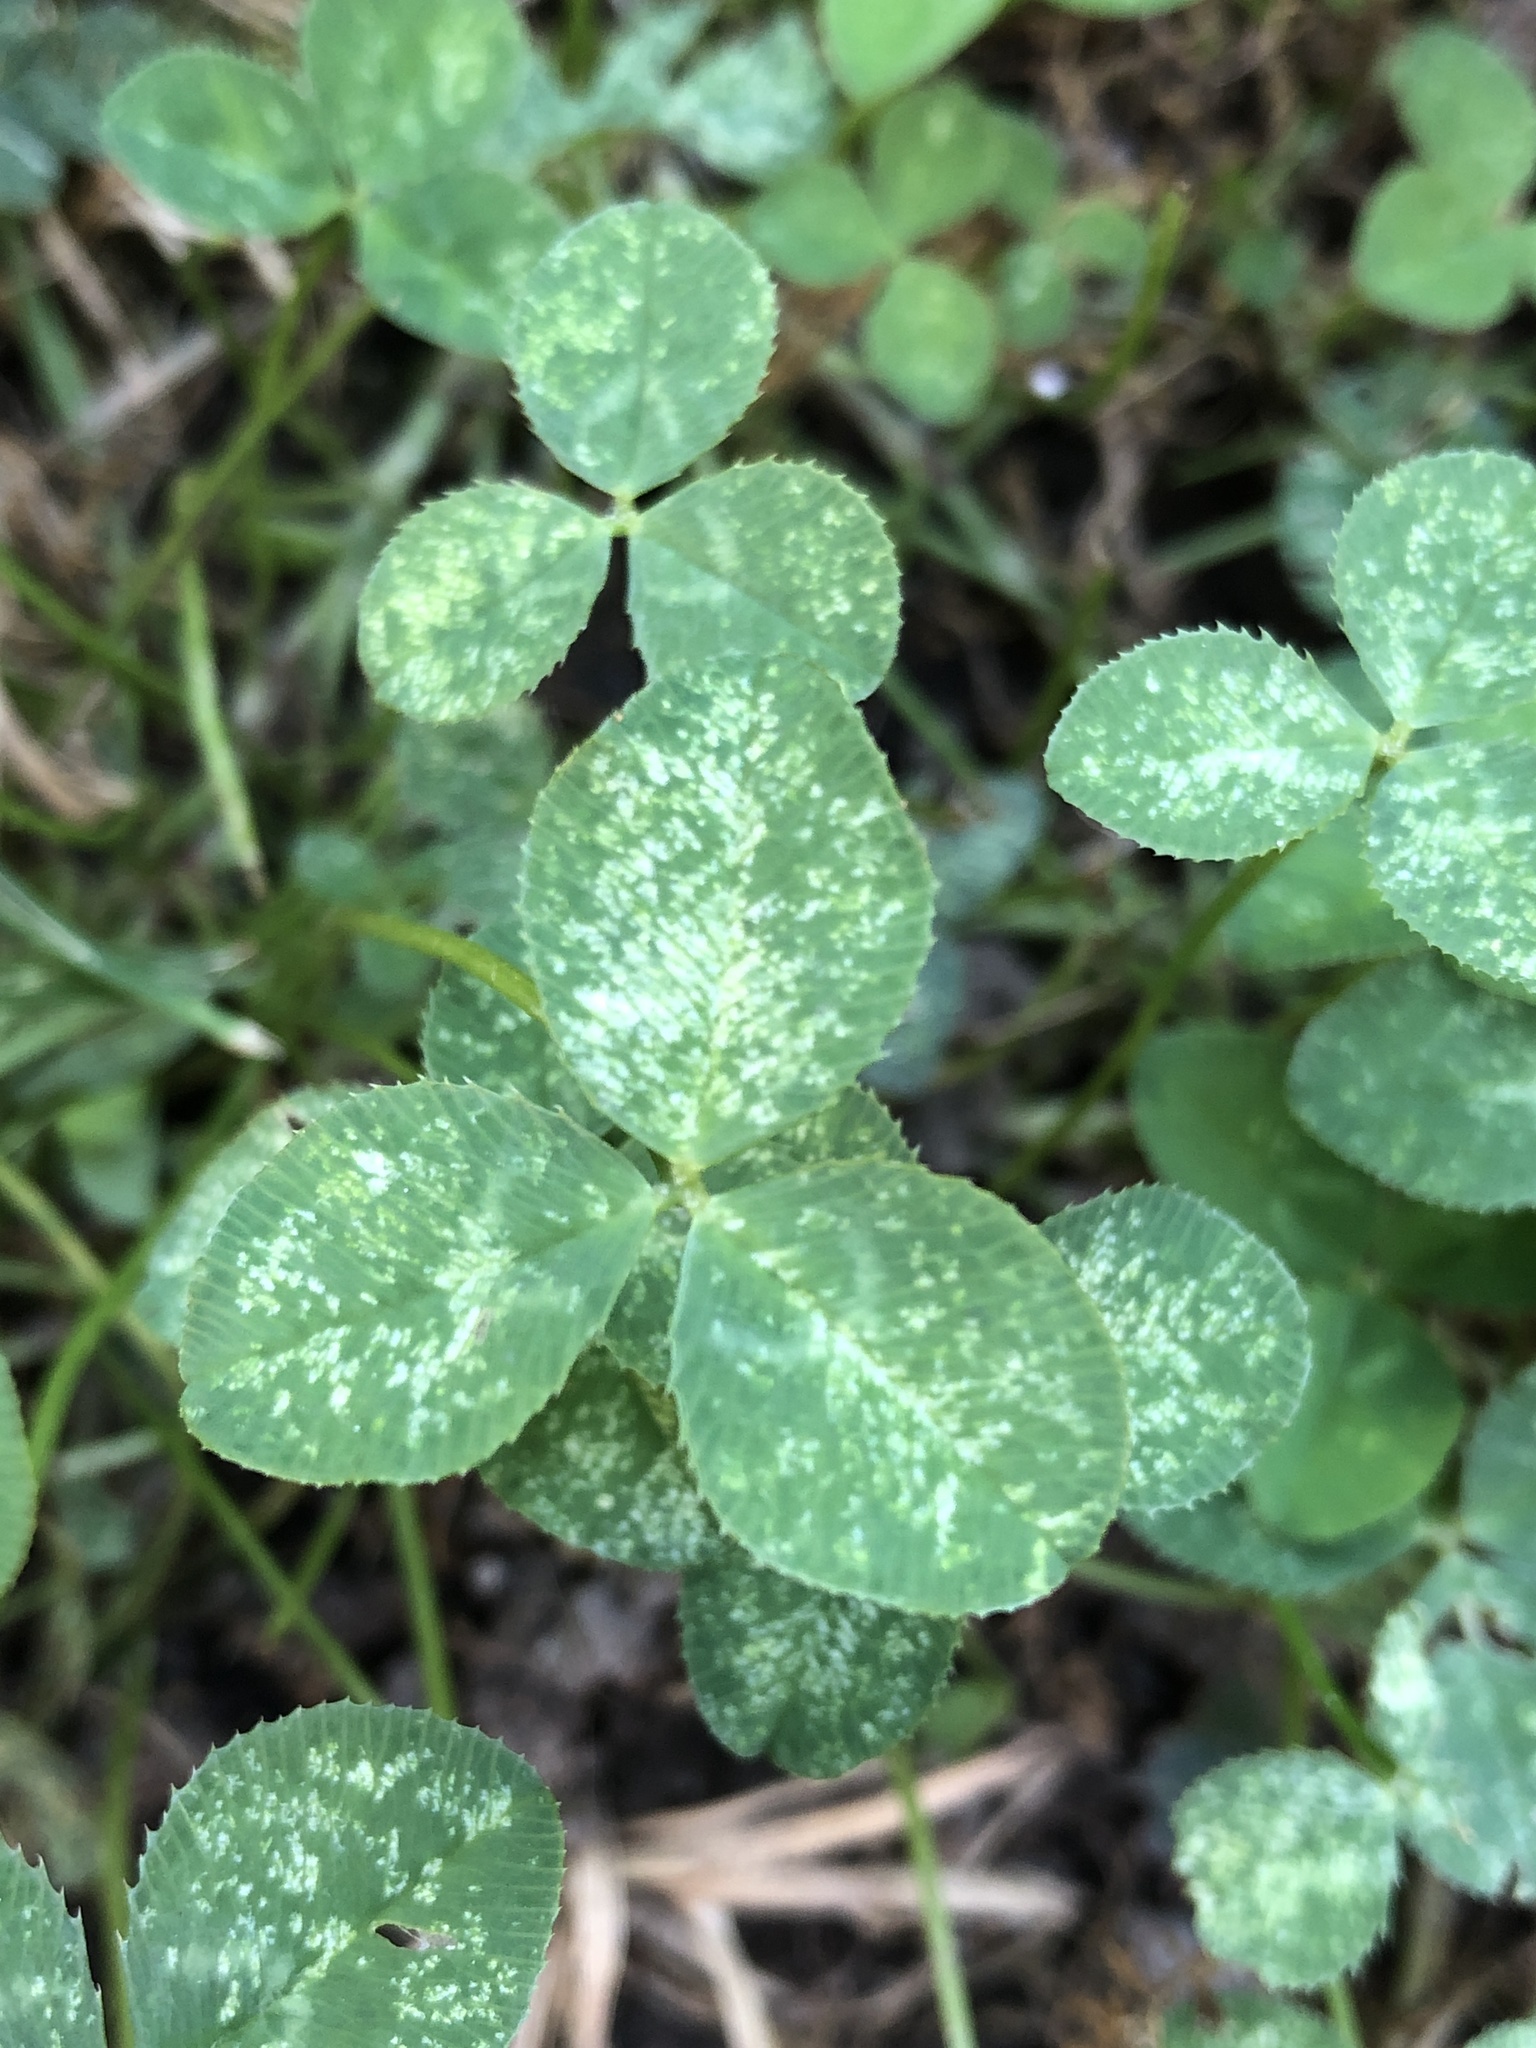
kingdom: Plantae
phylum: Tracheophyta
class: Magnoliopsida
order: Fabales
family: Fabaceae
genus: Trifolium
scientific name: Trifolium repens
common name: White clover
